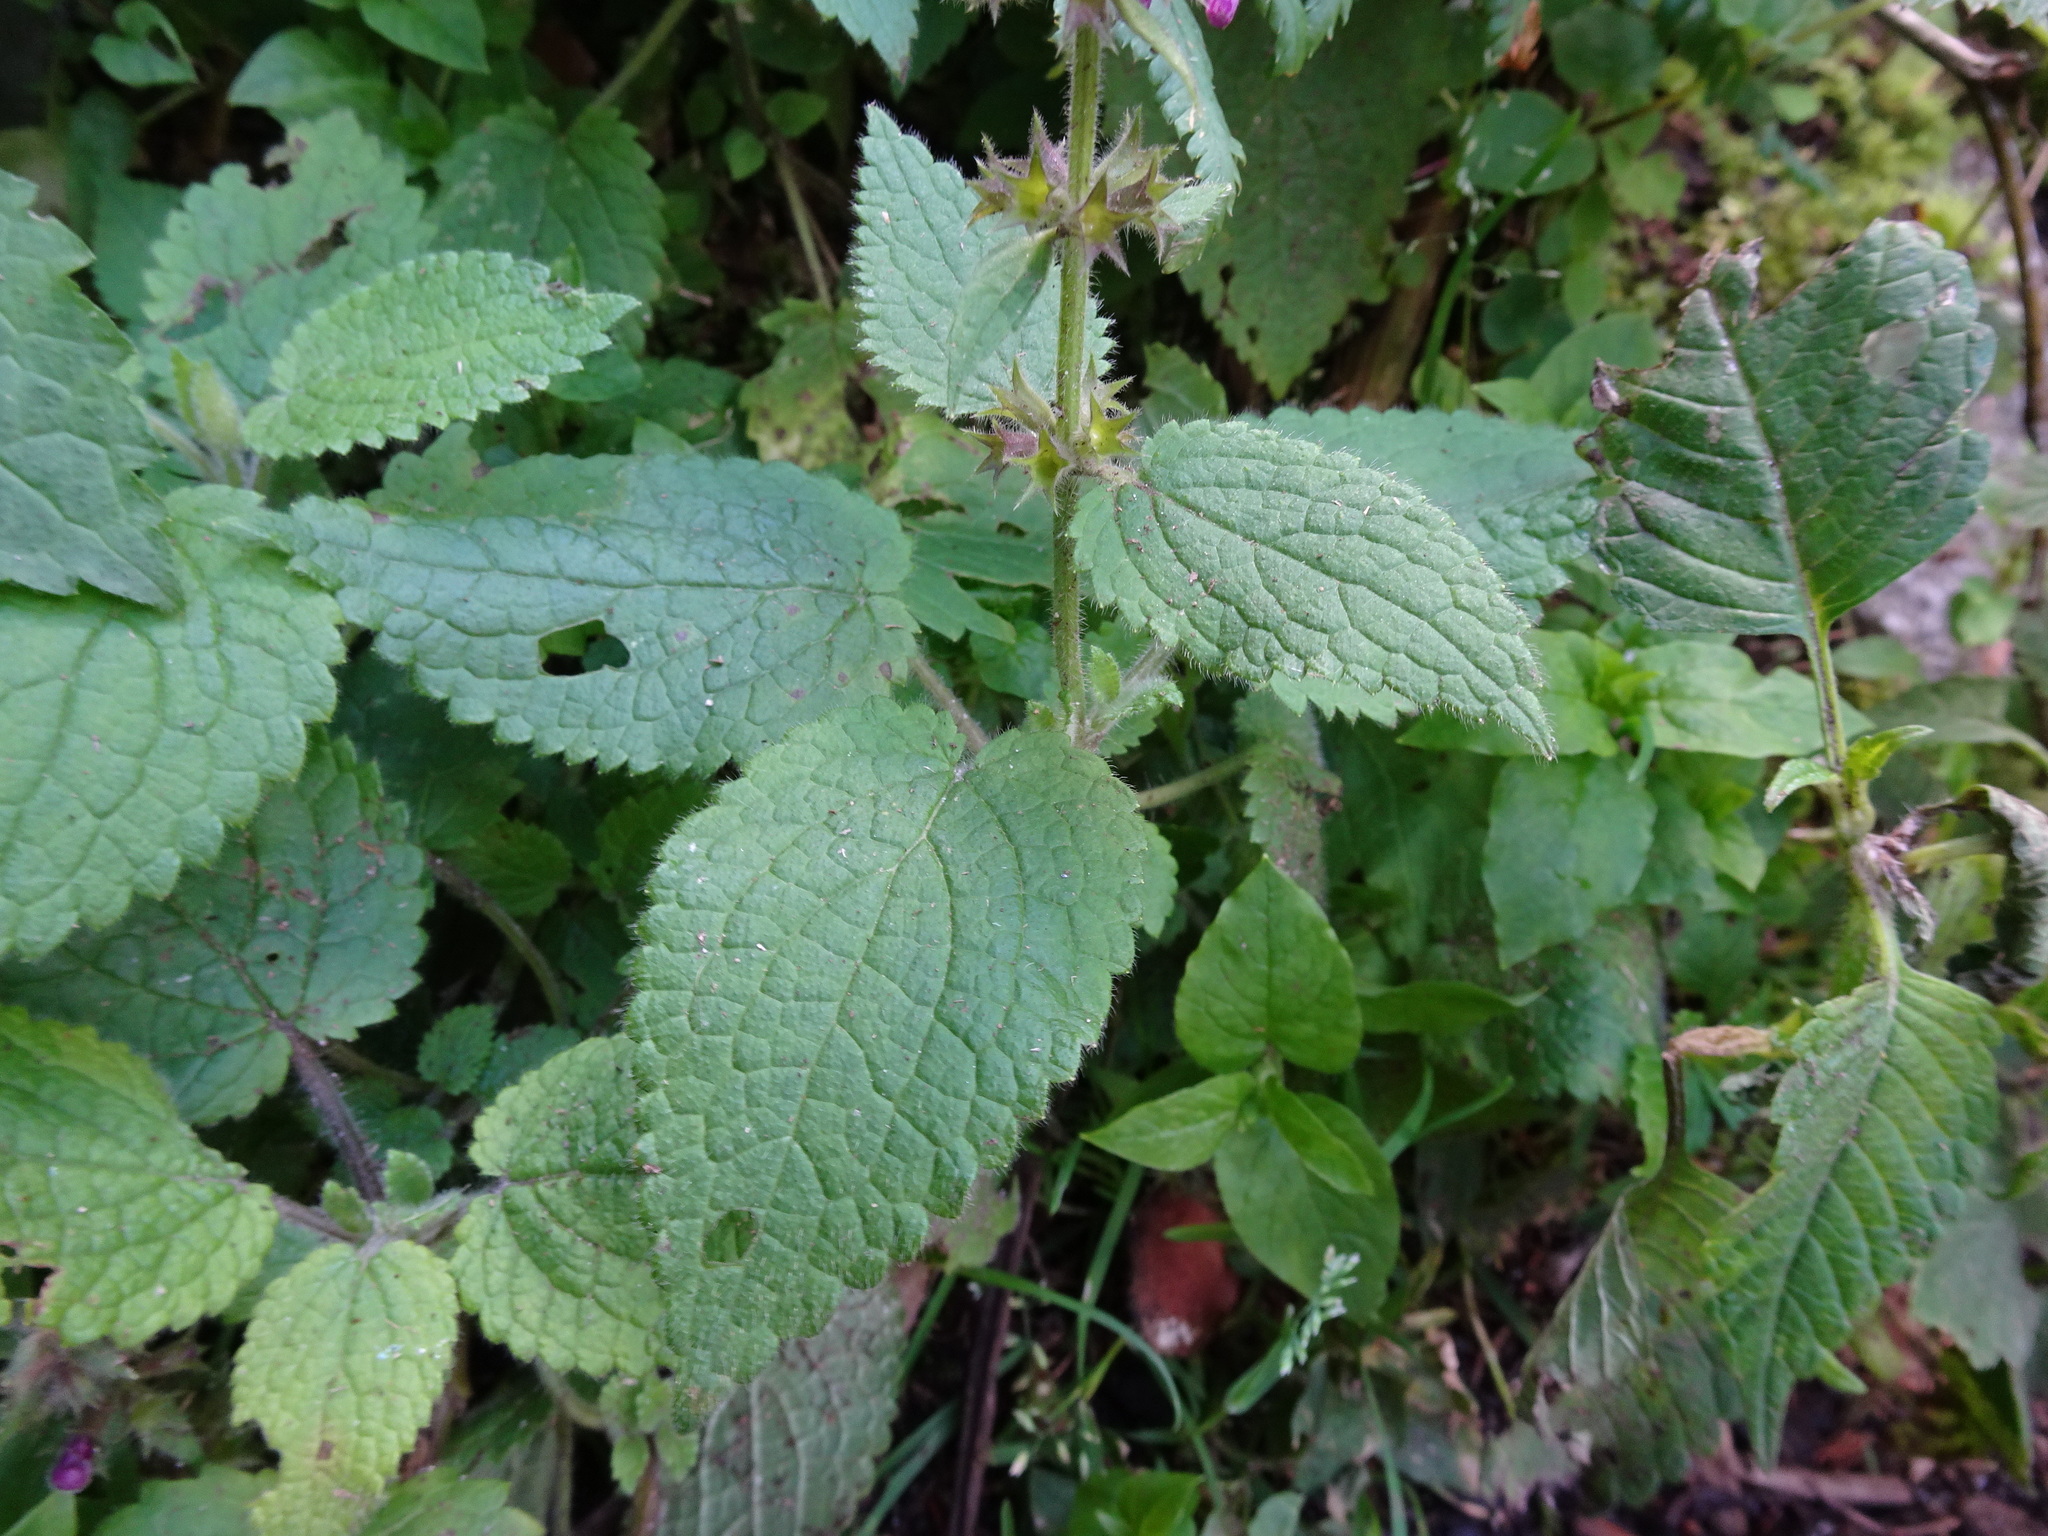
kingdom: Plantae
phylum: Tracheophyta
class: Magnoliopsida
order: Lamiales
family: Lamiaceae
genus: Stachys
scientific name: Stachys sylvatica
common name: Hedge woundwort
